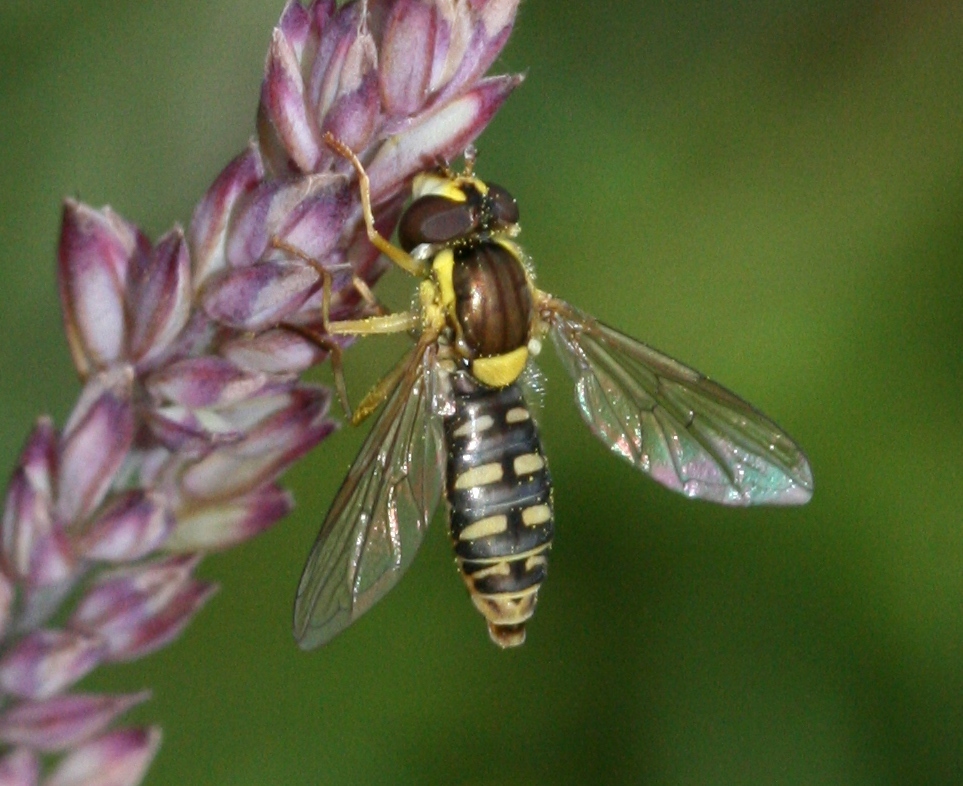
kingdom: Animalia
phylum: Arthropoda
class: Insecta
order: Diptera
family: Syrphidae
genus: Sphaerophoria
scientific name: Sphaerophoria
